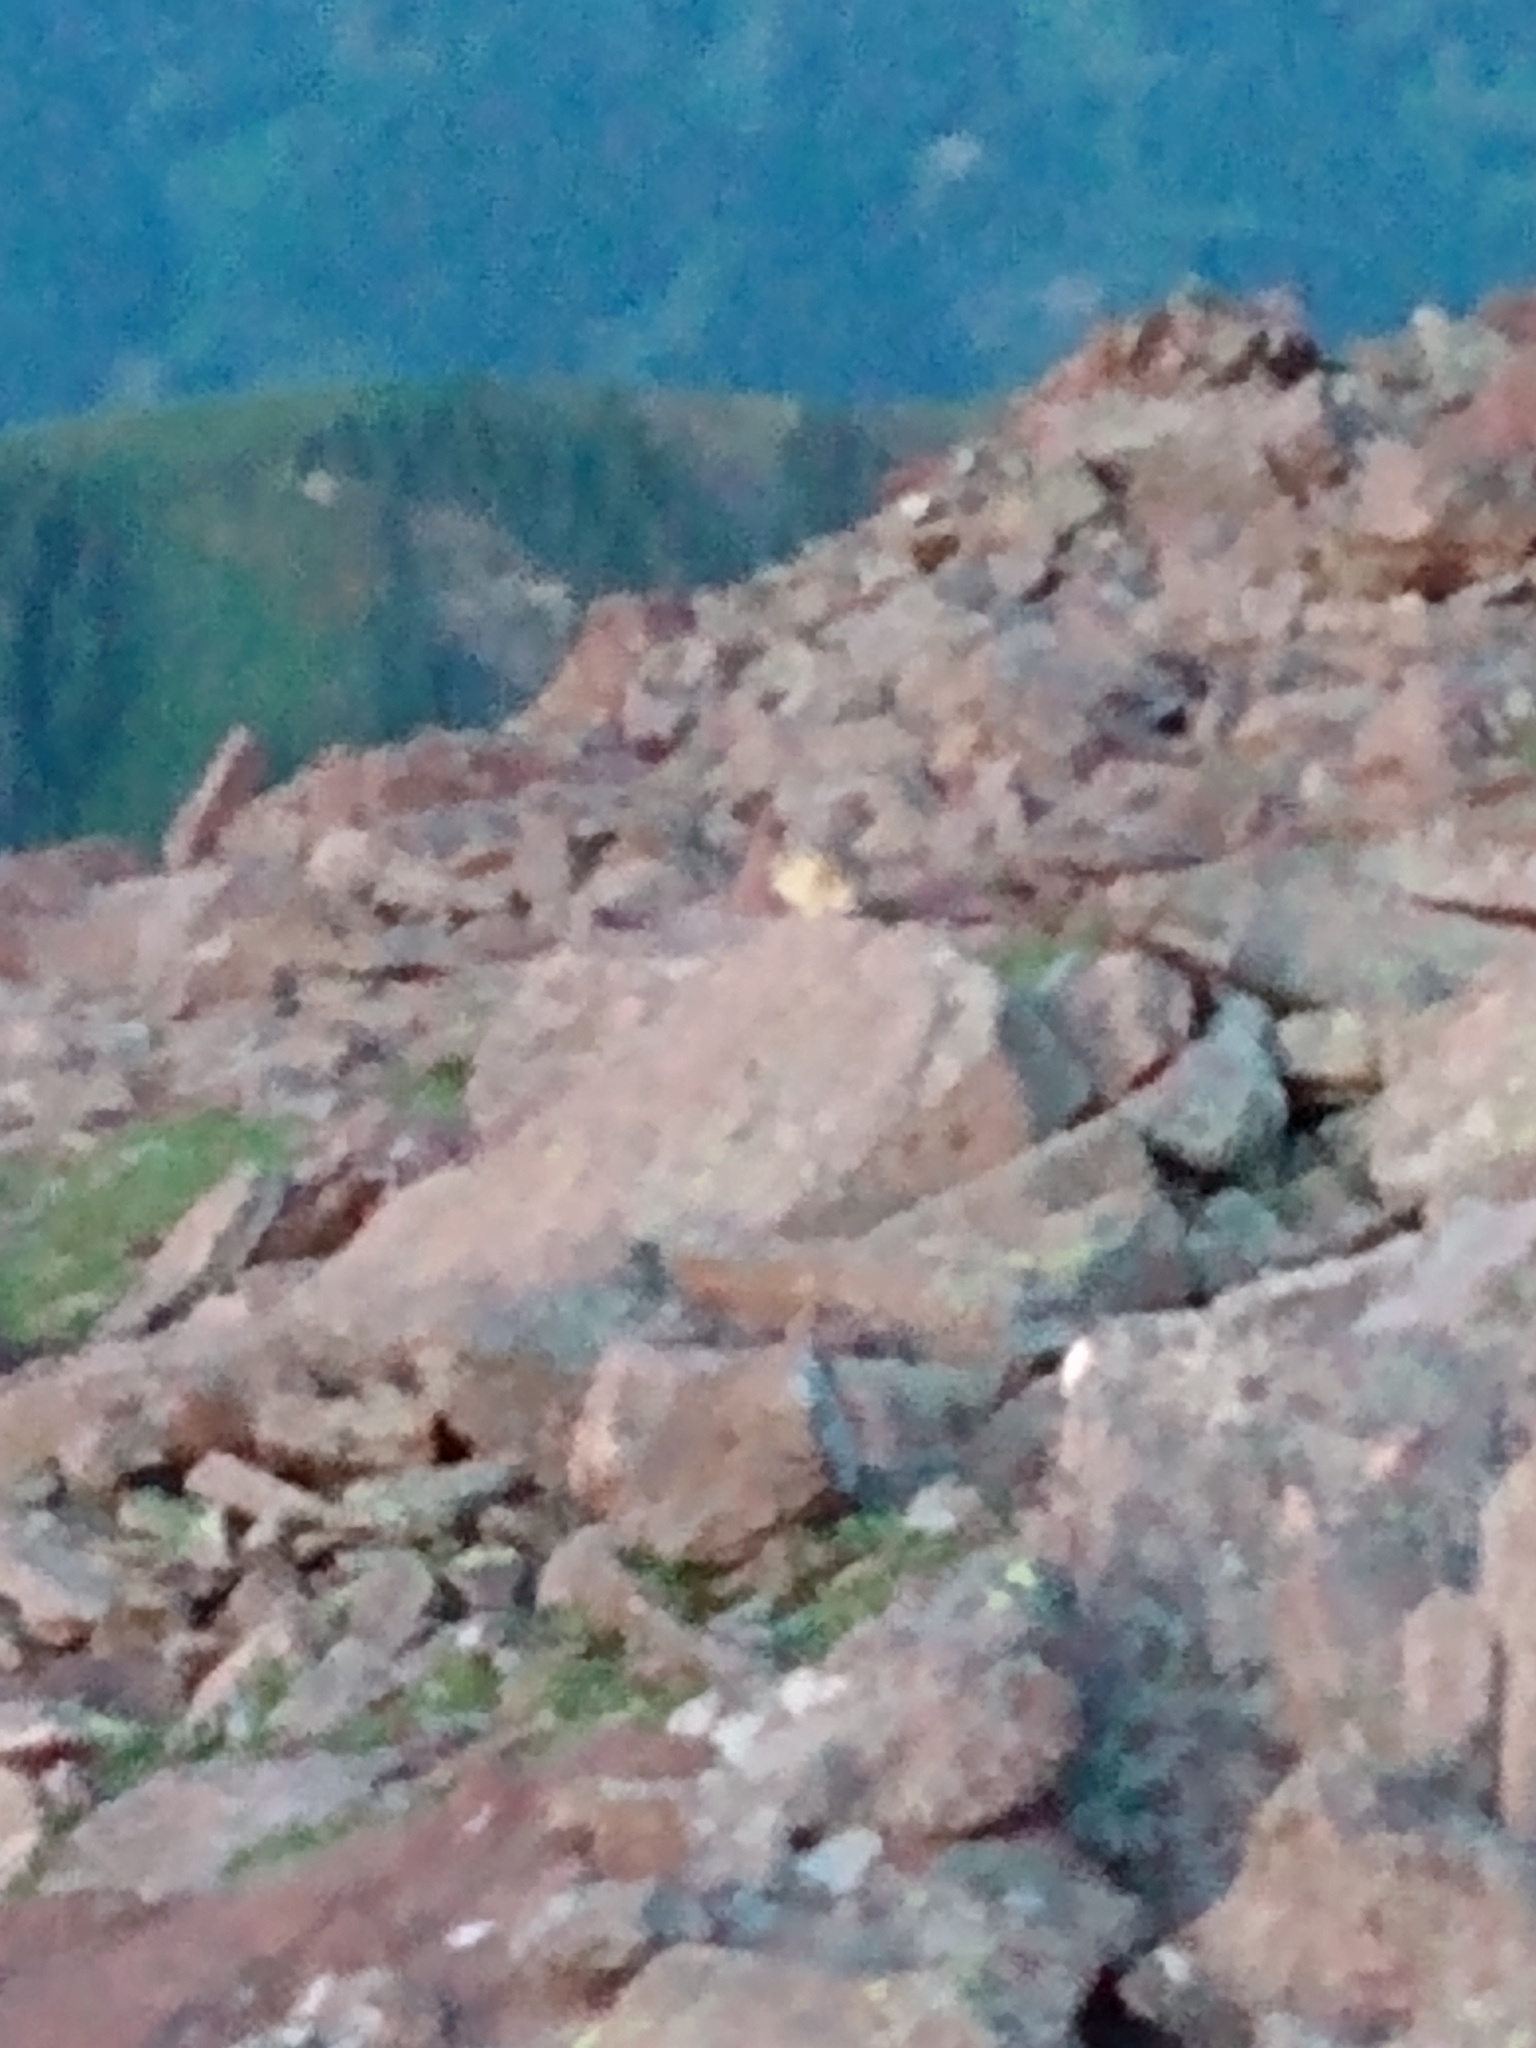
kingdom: Animalia
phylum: Chordata
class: Mammalia
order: Lagomorpha
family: Ochotonidae
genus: Ochotona
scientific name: Ochotona princeps
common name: American pika
